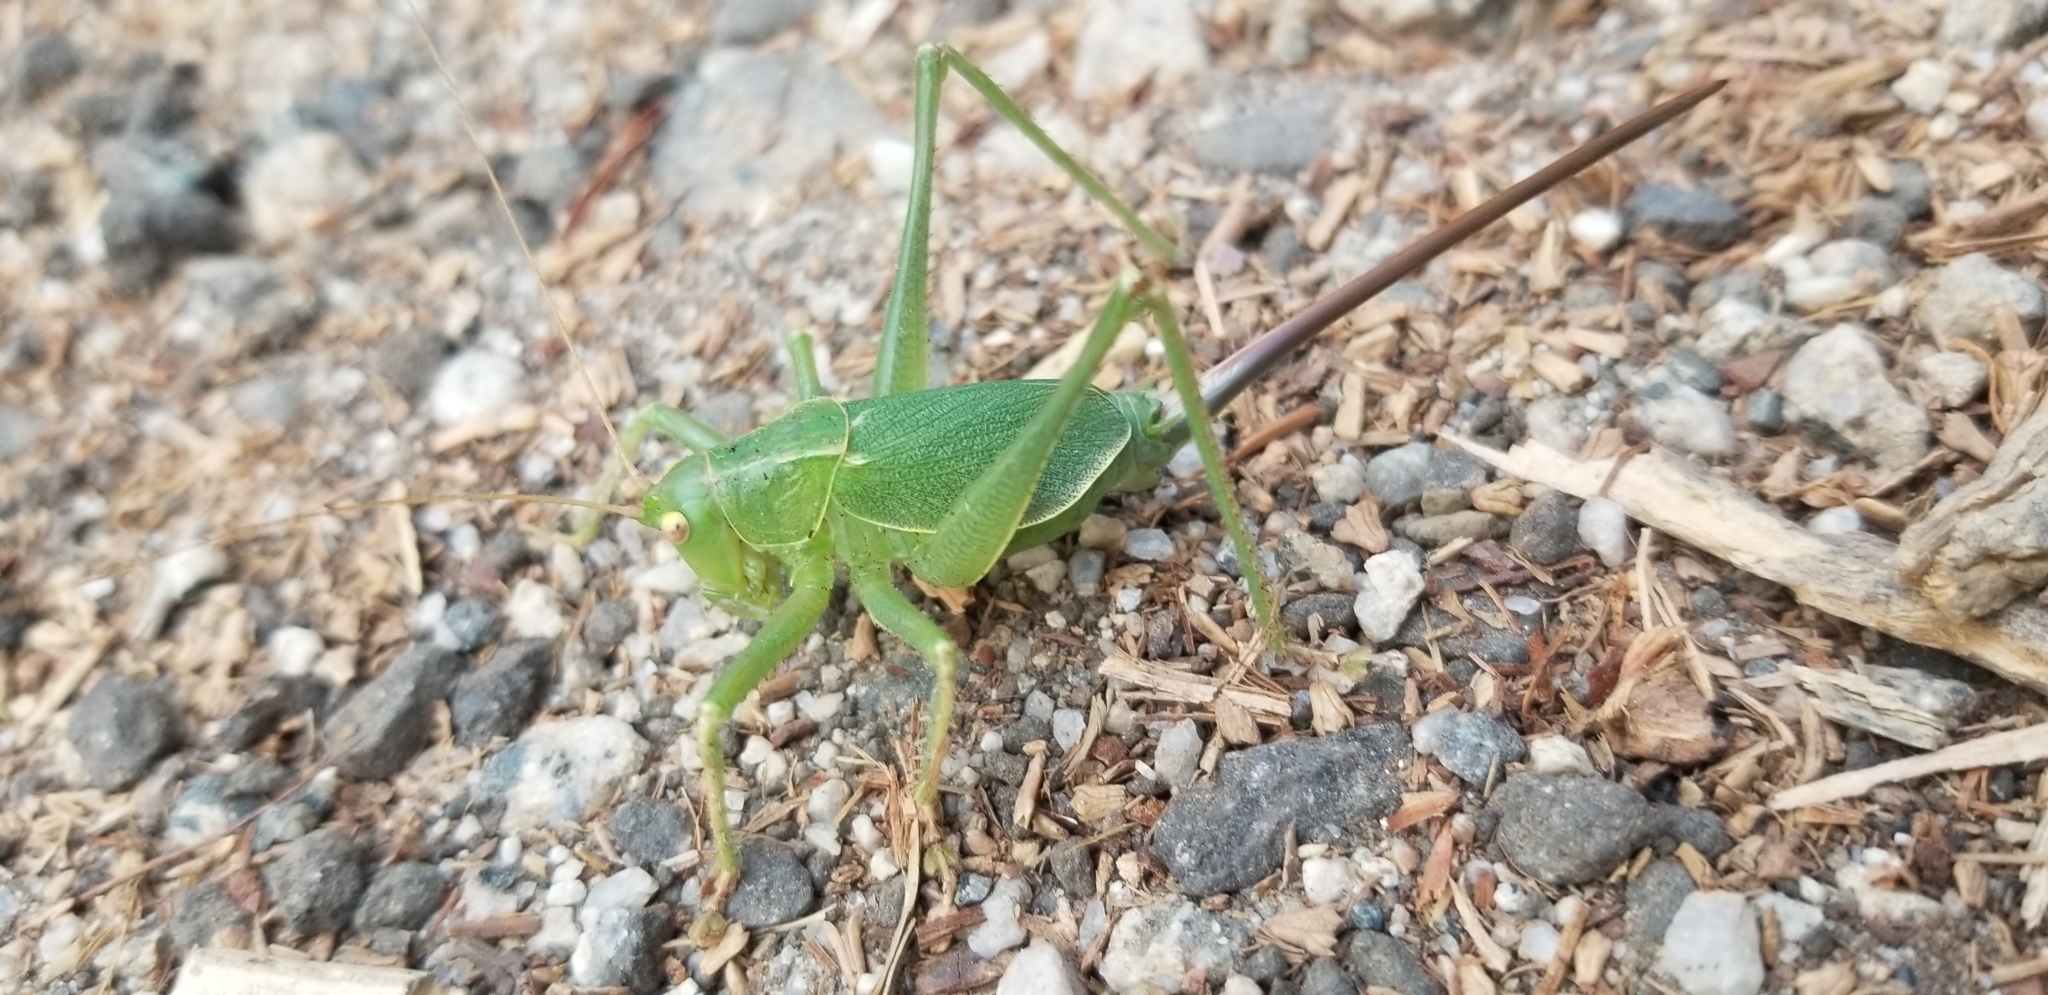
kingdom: Animalia
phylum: Arthropoda
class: Insecta
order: Orthoptera
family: Tettigoniidae
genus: Cyrtophyllicus
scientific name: Cyrtophyllicus chlorum
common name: Chaparral shieldback
